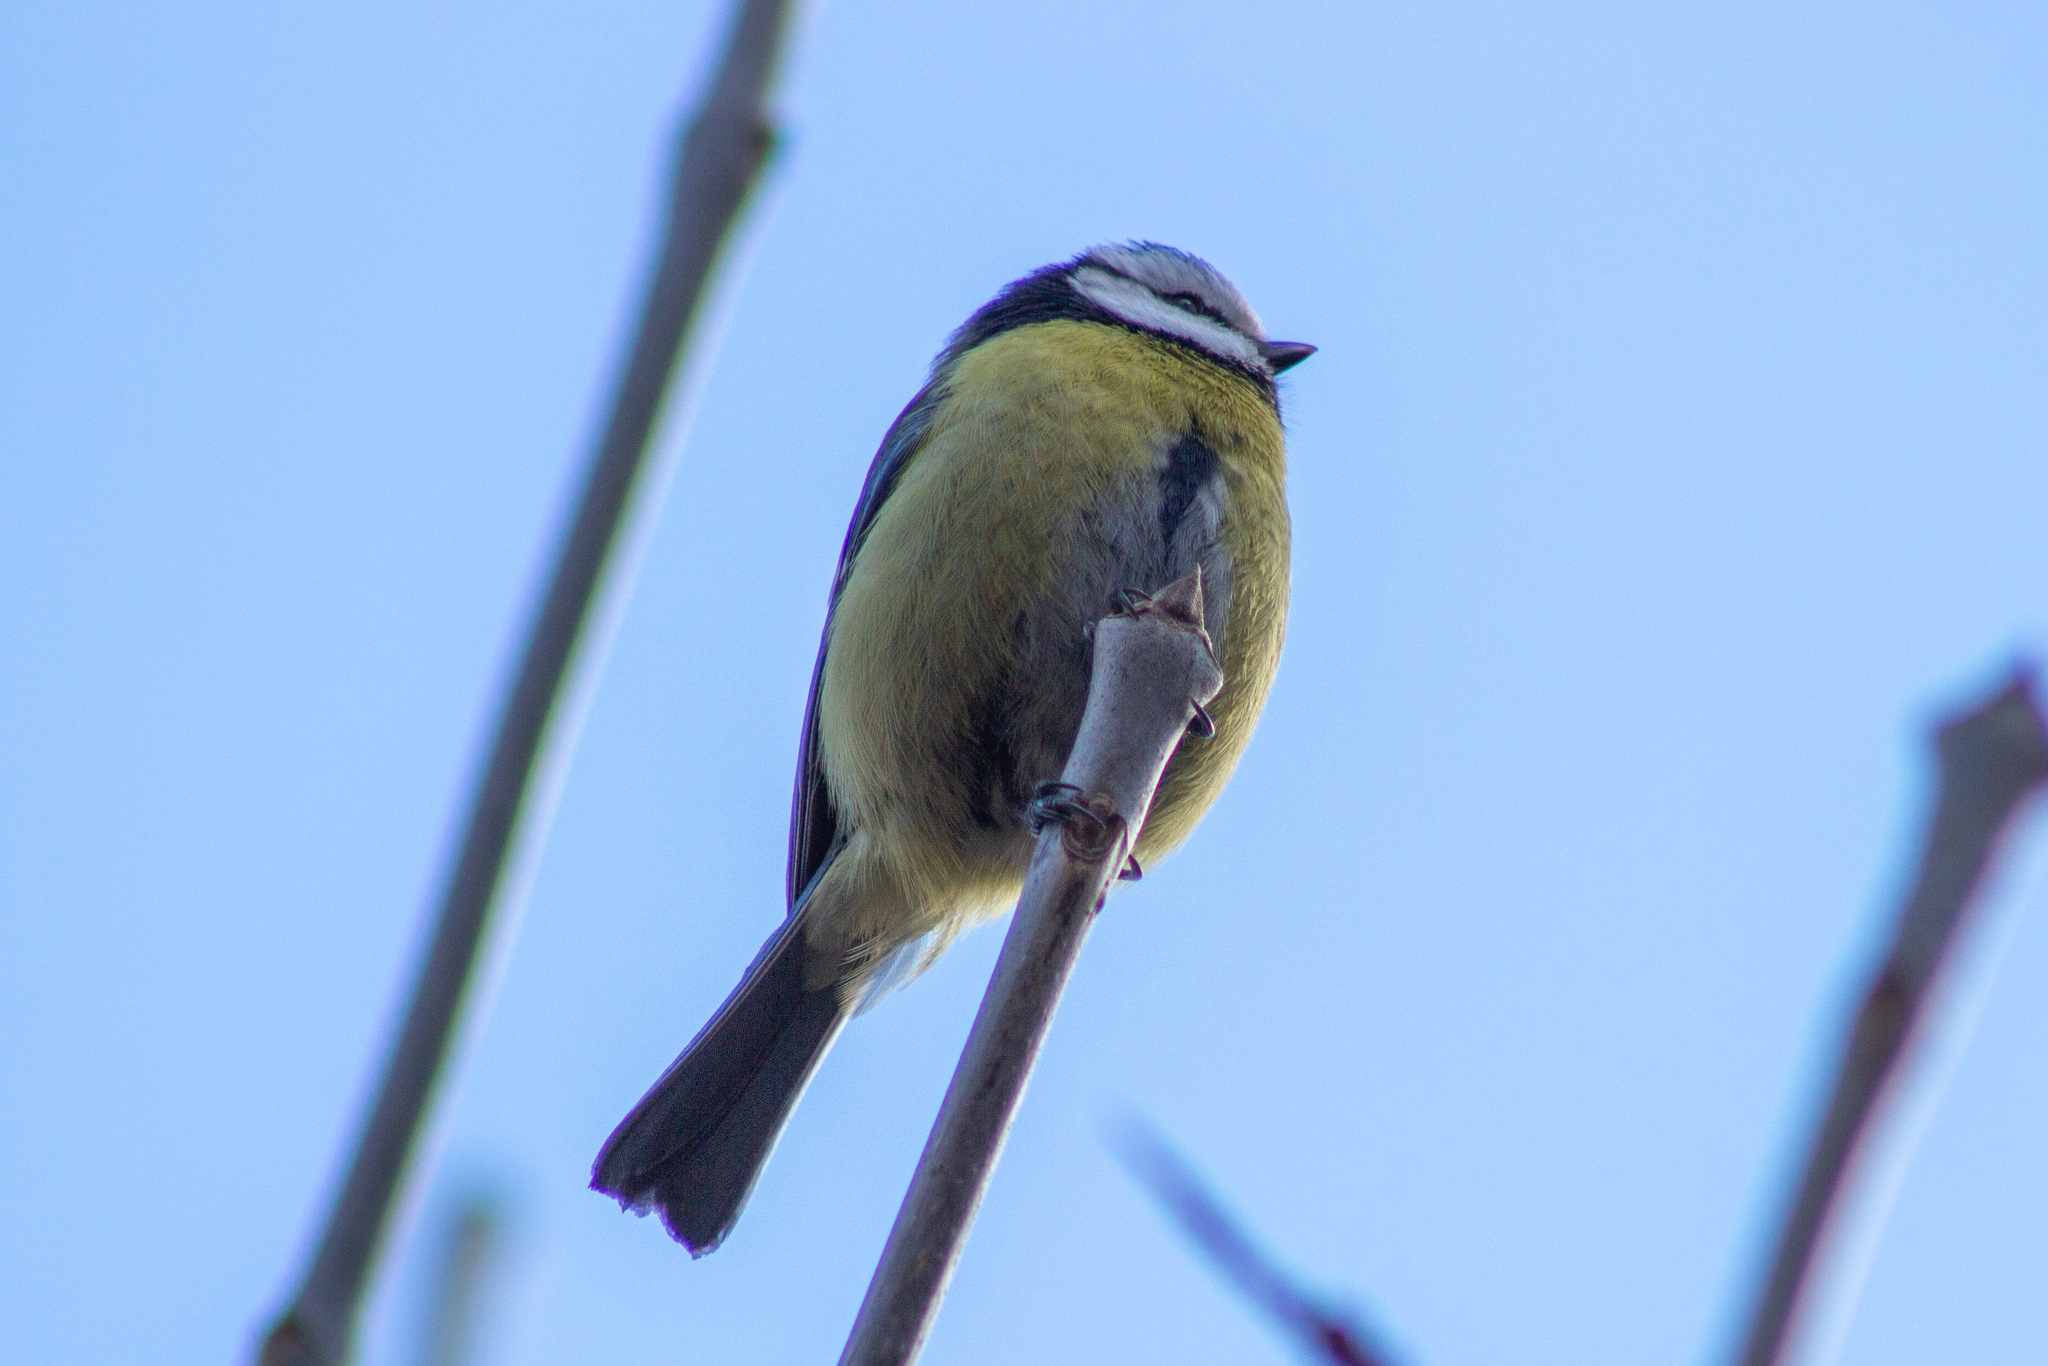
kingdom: Animalia
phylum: Chordata
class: Aves
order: Passeriformes
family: Paridae
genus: Cyanistes
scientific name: Cyanistes caeruleus
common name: Eurasian blue tit
